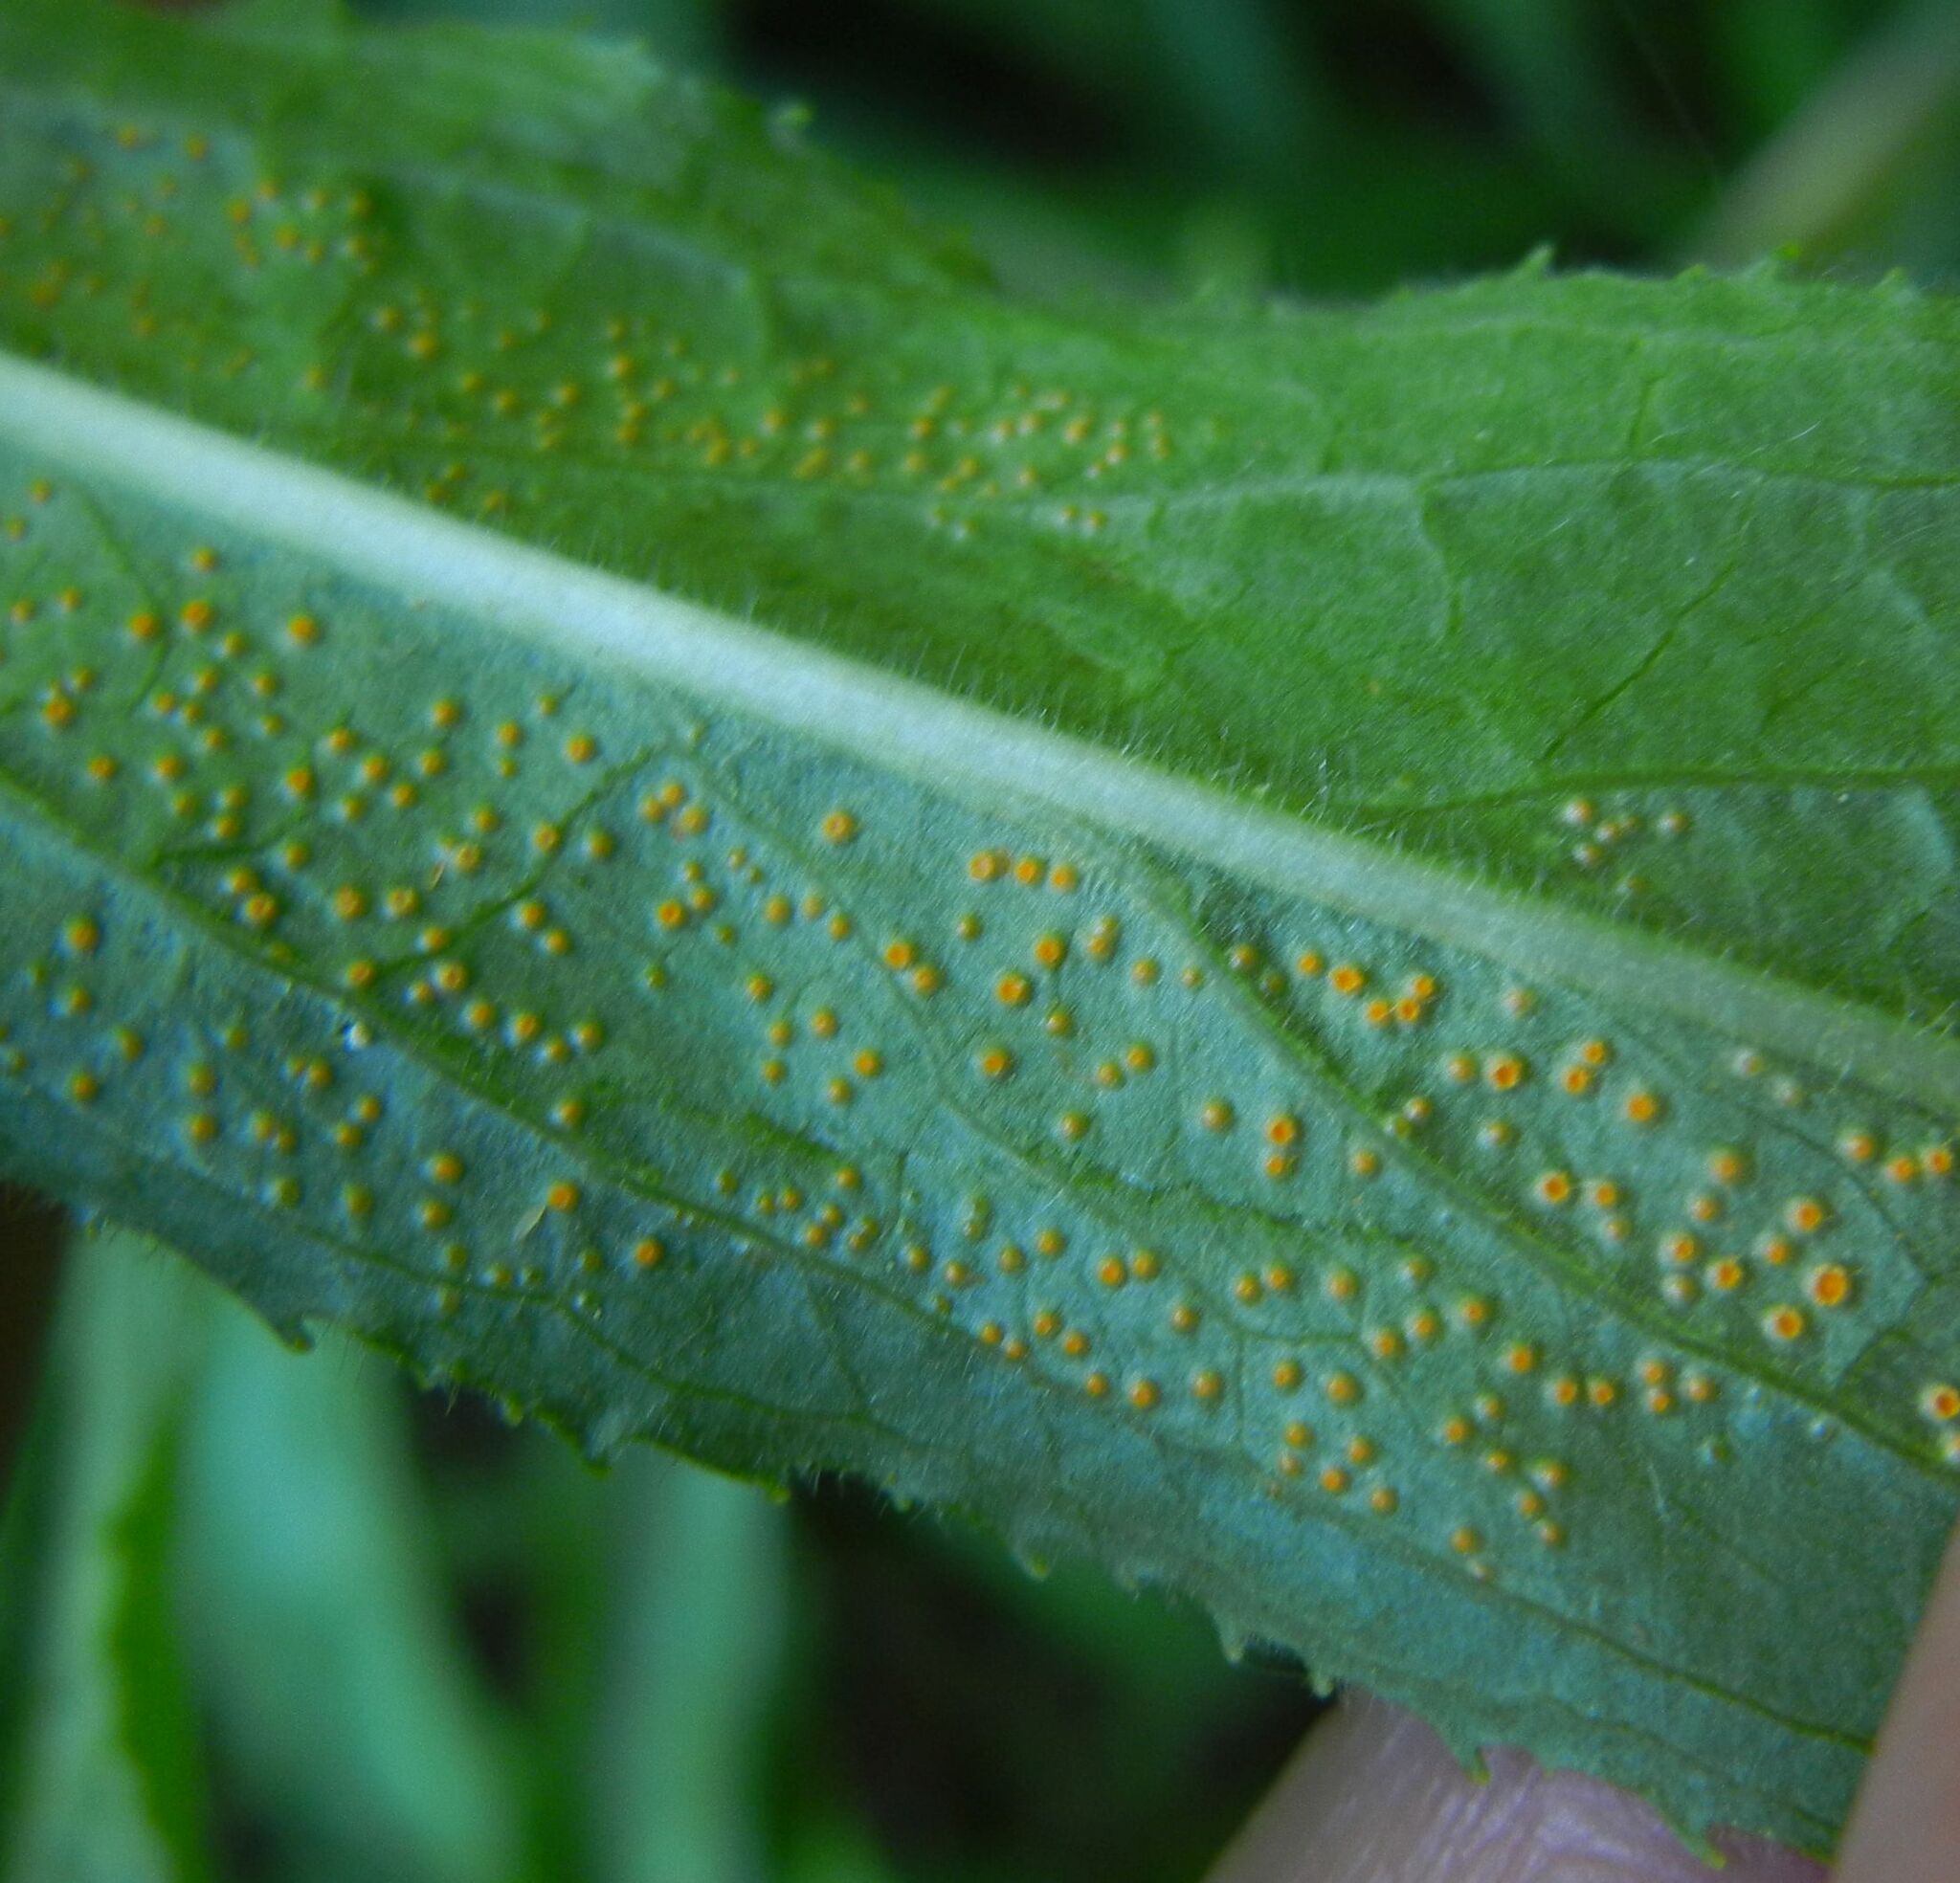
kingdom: Fungi
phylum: Basidiomycota
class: Pucciniomycetes
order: Pucciniales
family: Pucciniaceae
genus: Puccinia
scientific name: Puccinia pulverulenta
